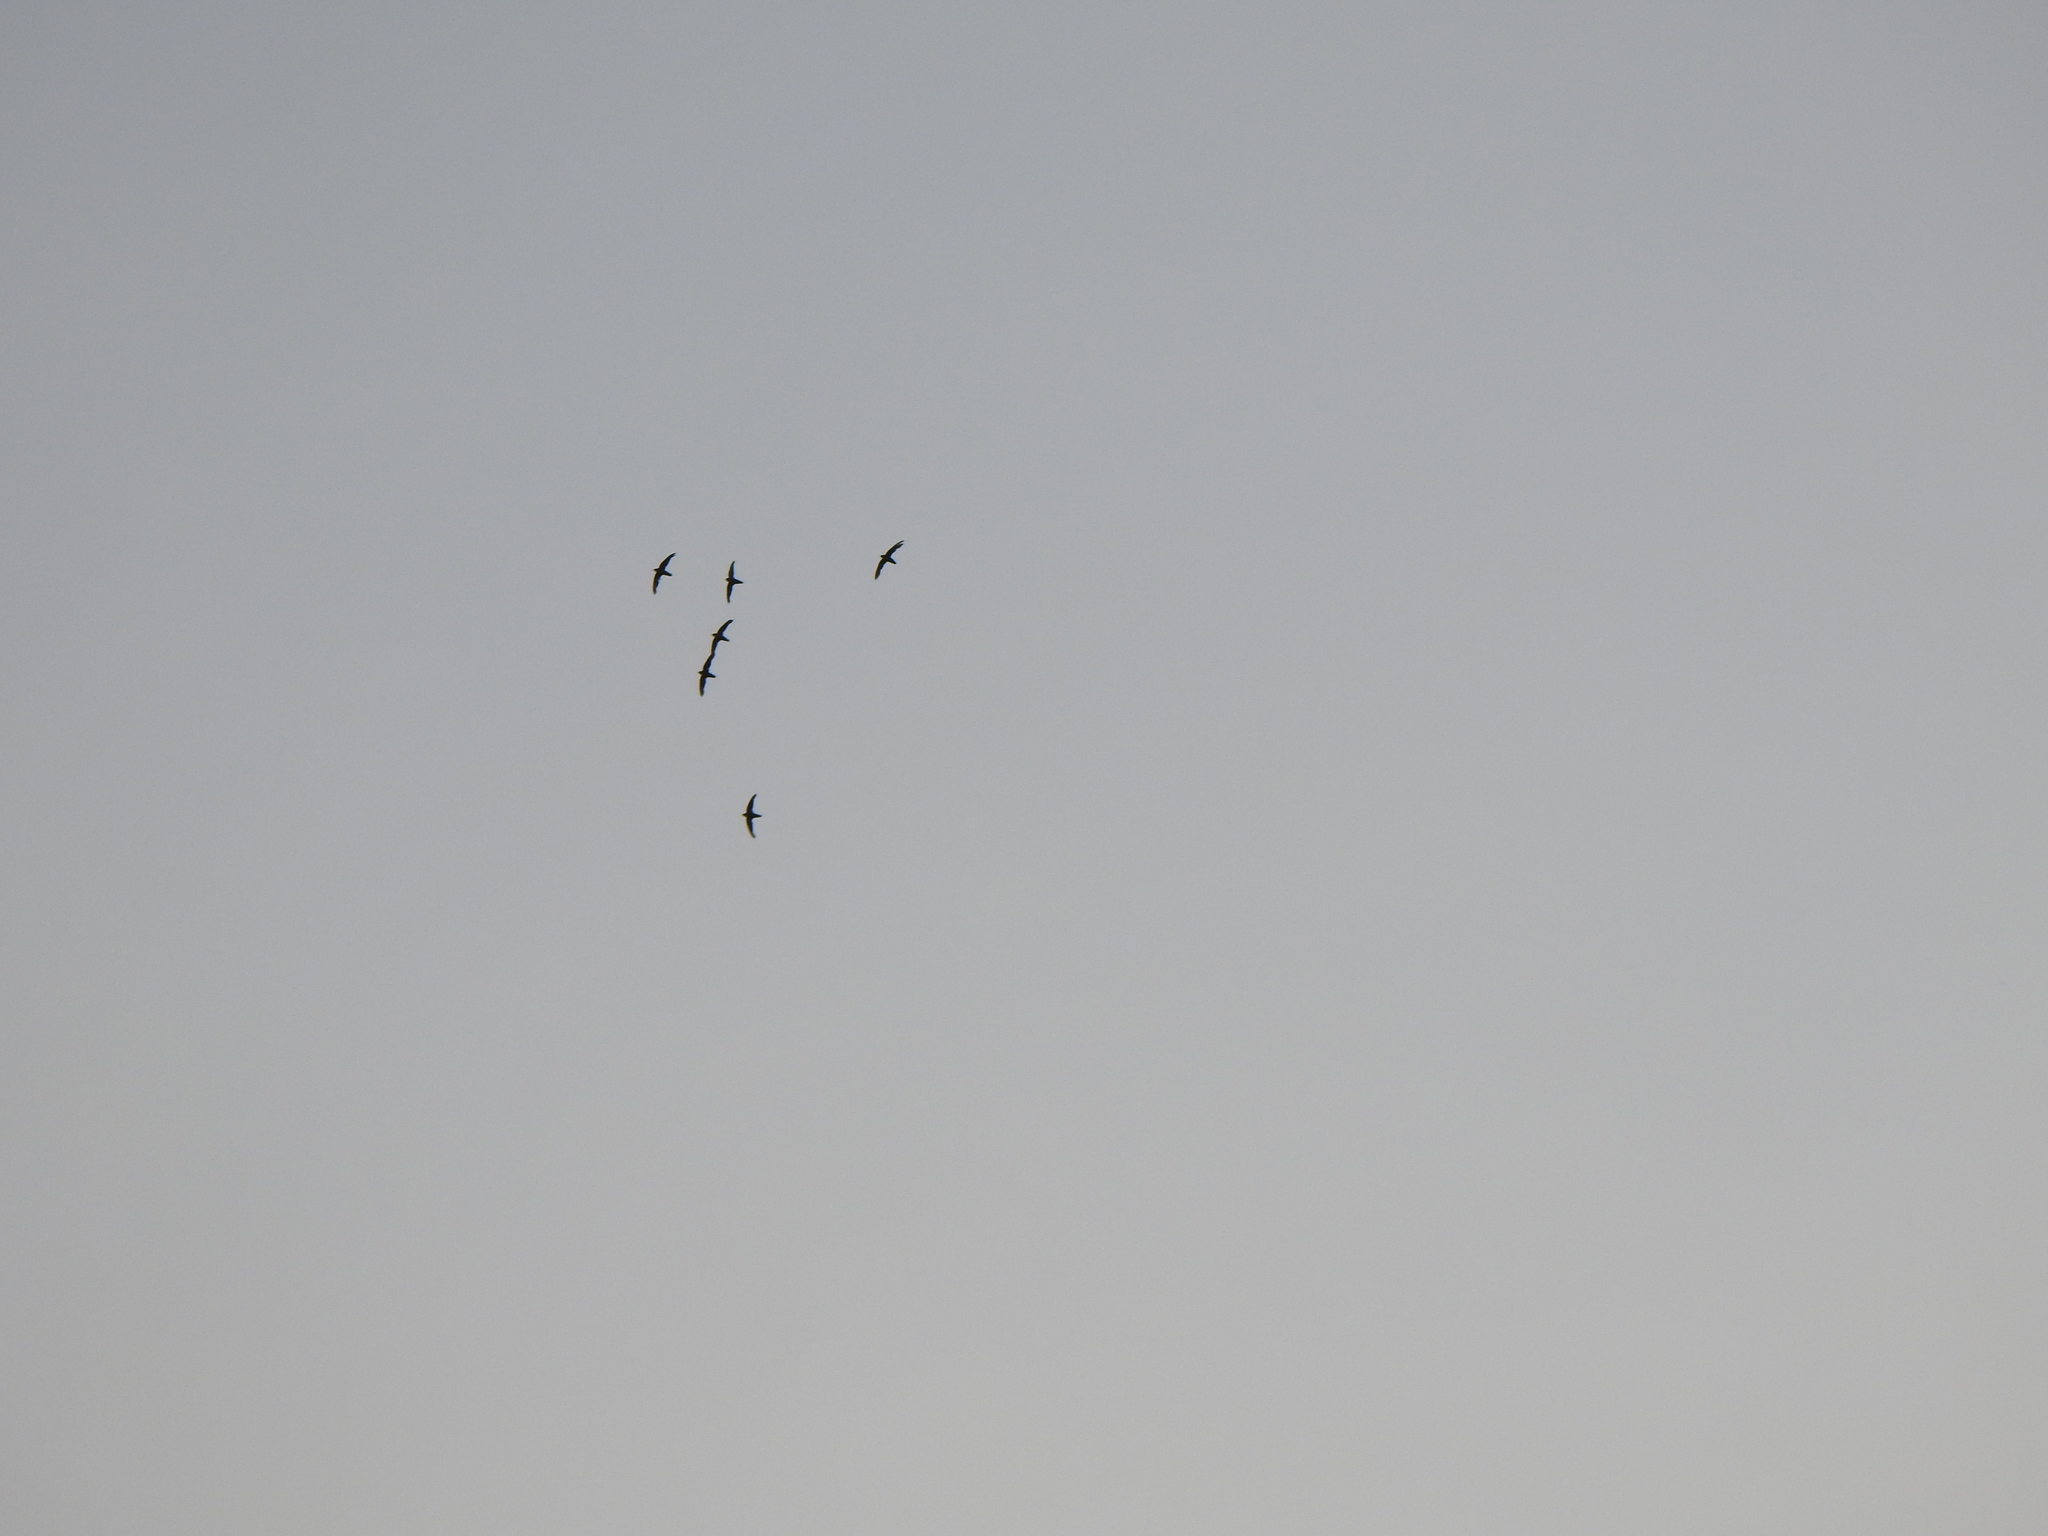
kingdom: Animalia
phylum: Chordata
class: Aves
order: Apodiformes
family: Apodidae
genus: Chaetura
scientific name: Chaetura pelagica
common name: Chimney swift
